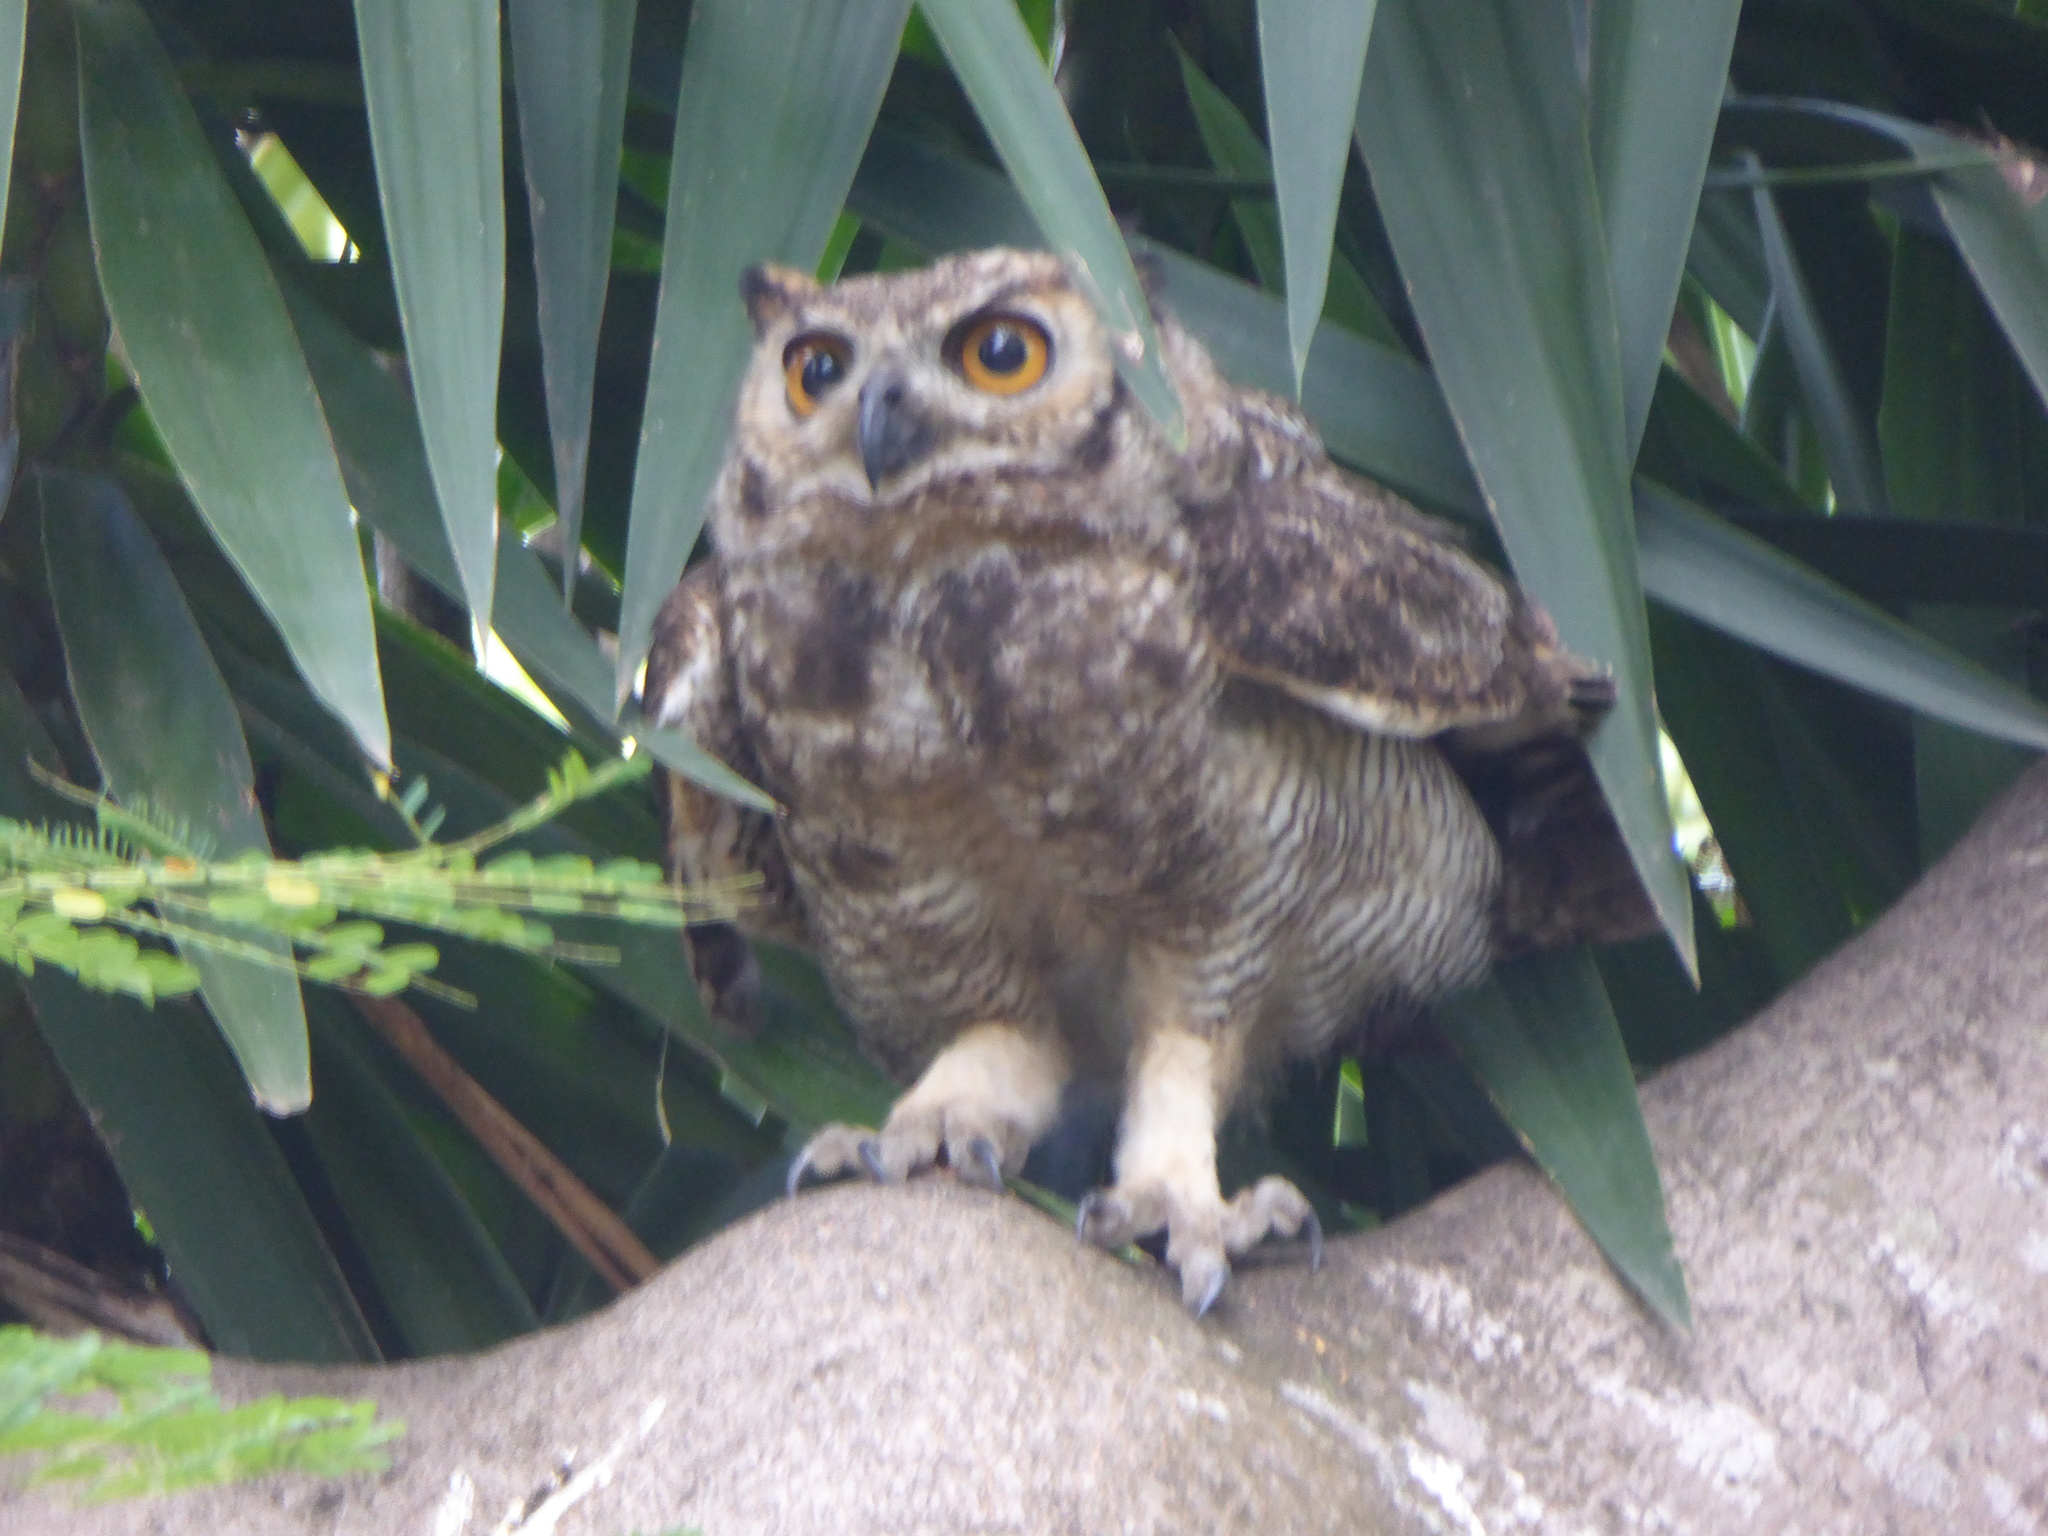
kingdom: Animalia
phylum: Chordata
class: Aves
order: Strigiformes
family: Strigidae
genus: Bubo
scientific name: Bubo virginianus
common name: Great horned owl
